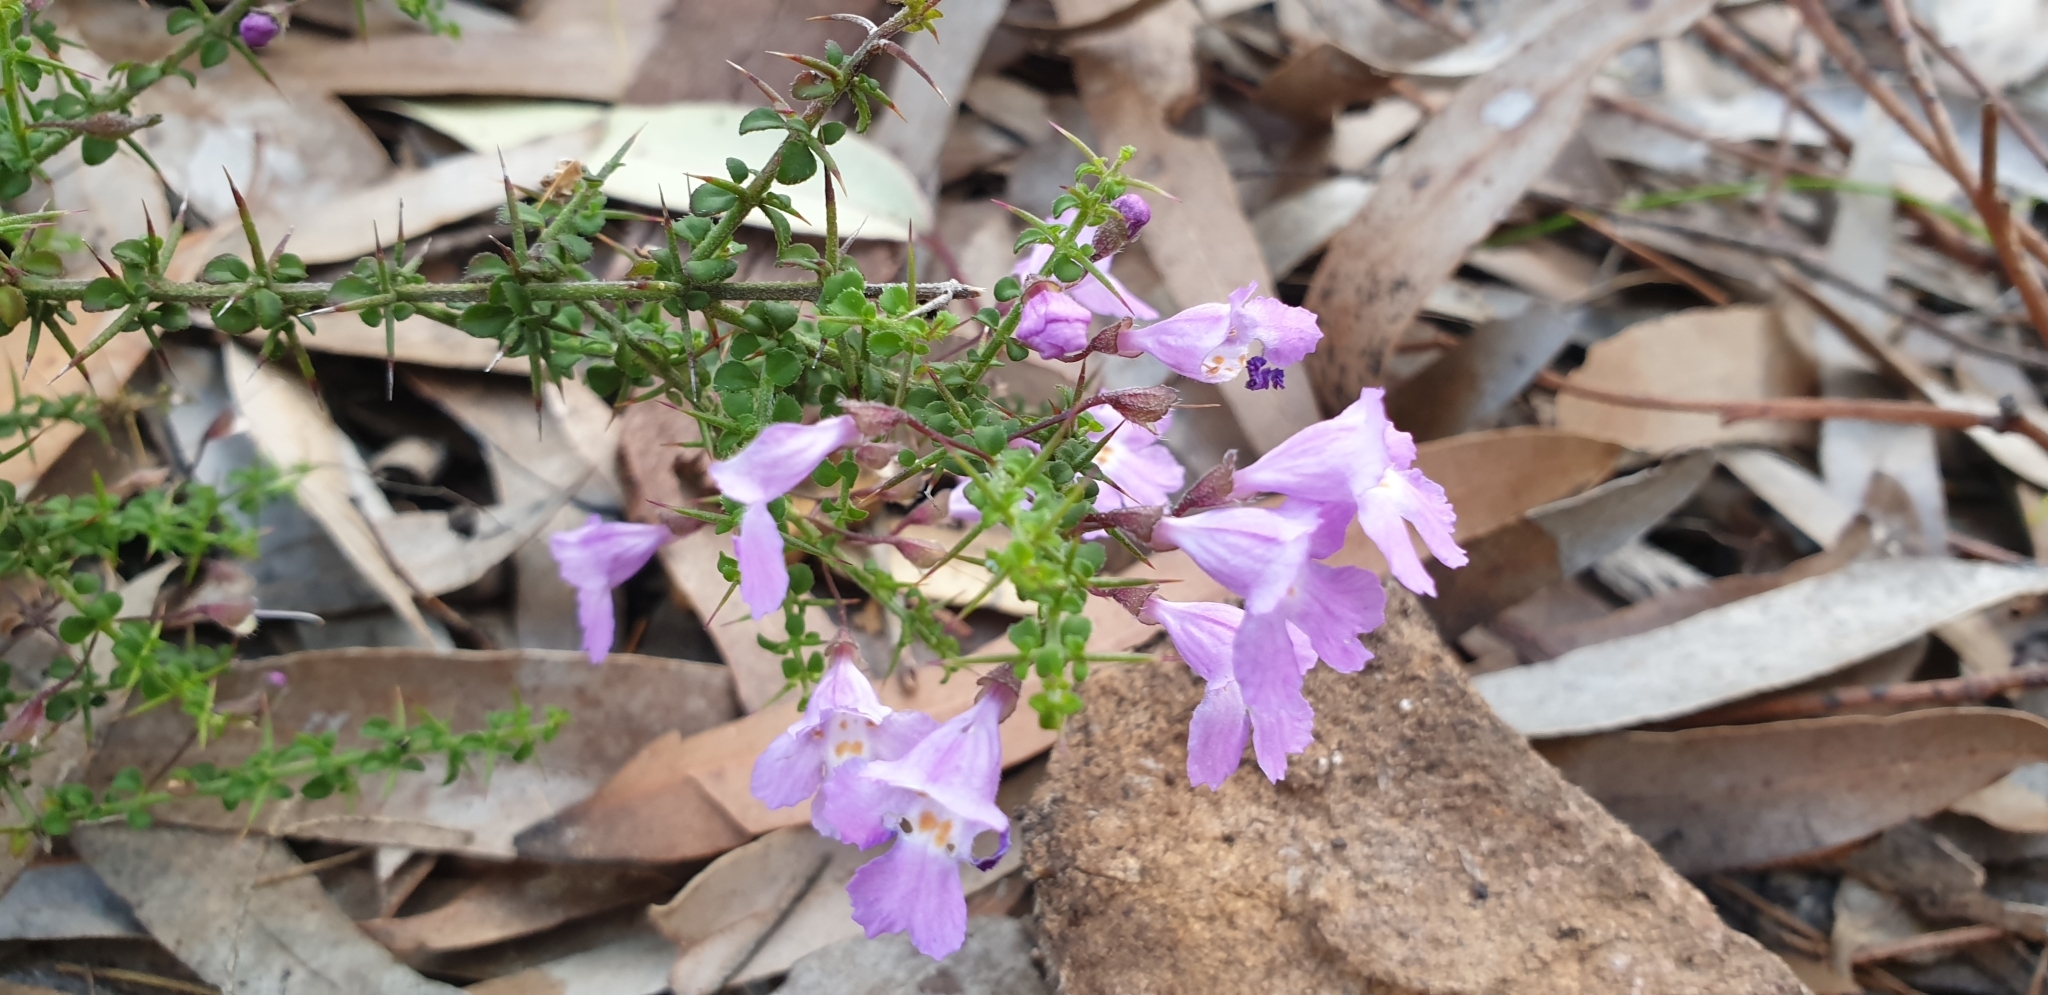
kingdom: Plantae
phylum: Tracheophyta
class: Magnoliopsida
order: Lamiales
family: Lamiaceae
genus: Prostanthera
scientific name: Prostanthera spinosa
